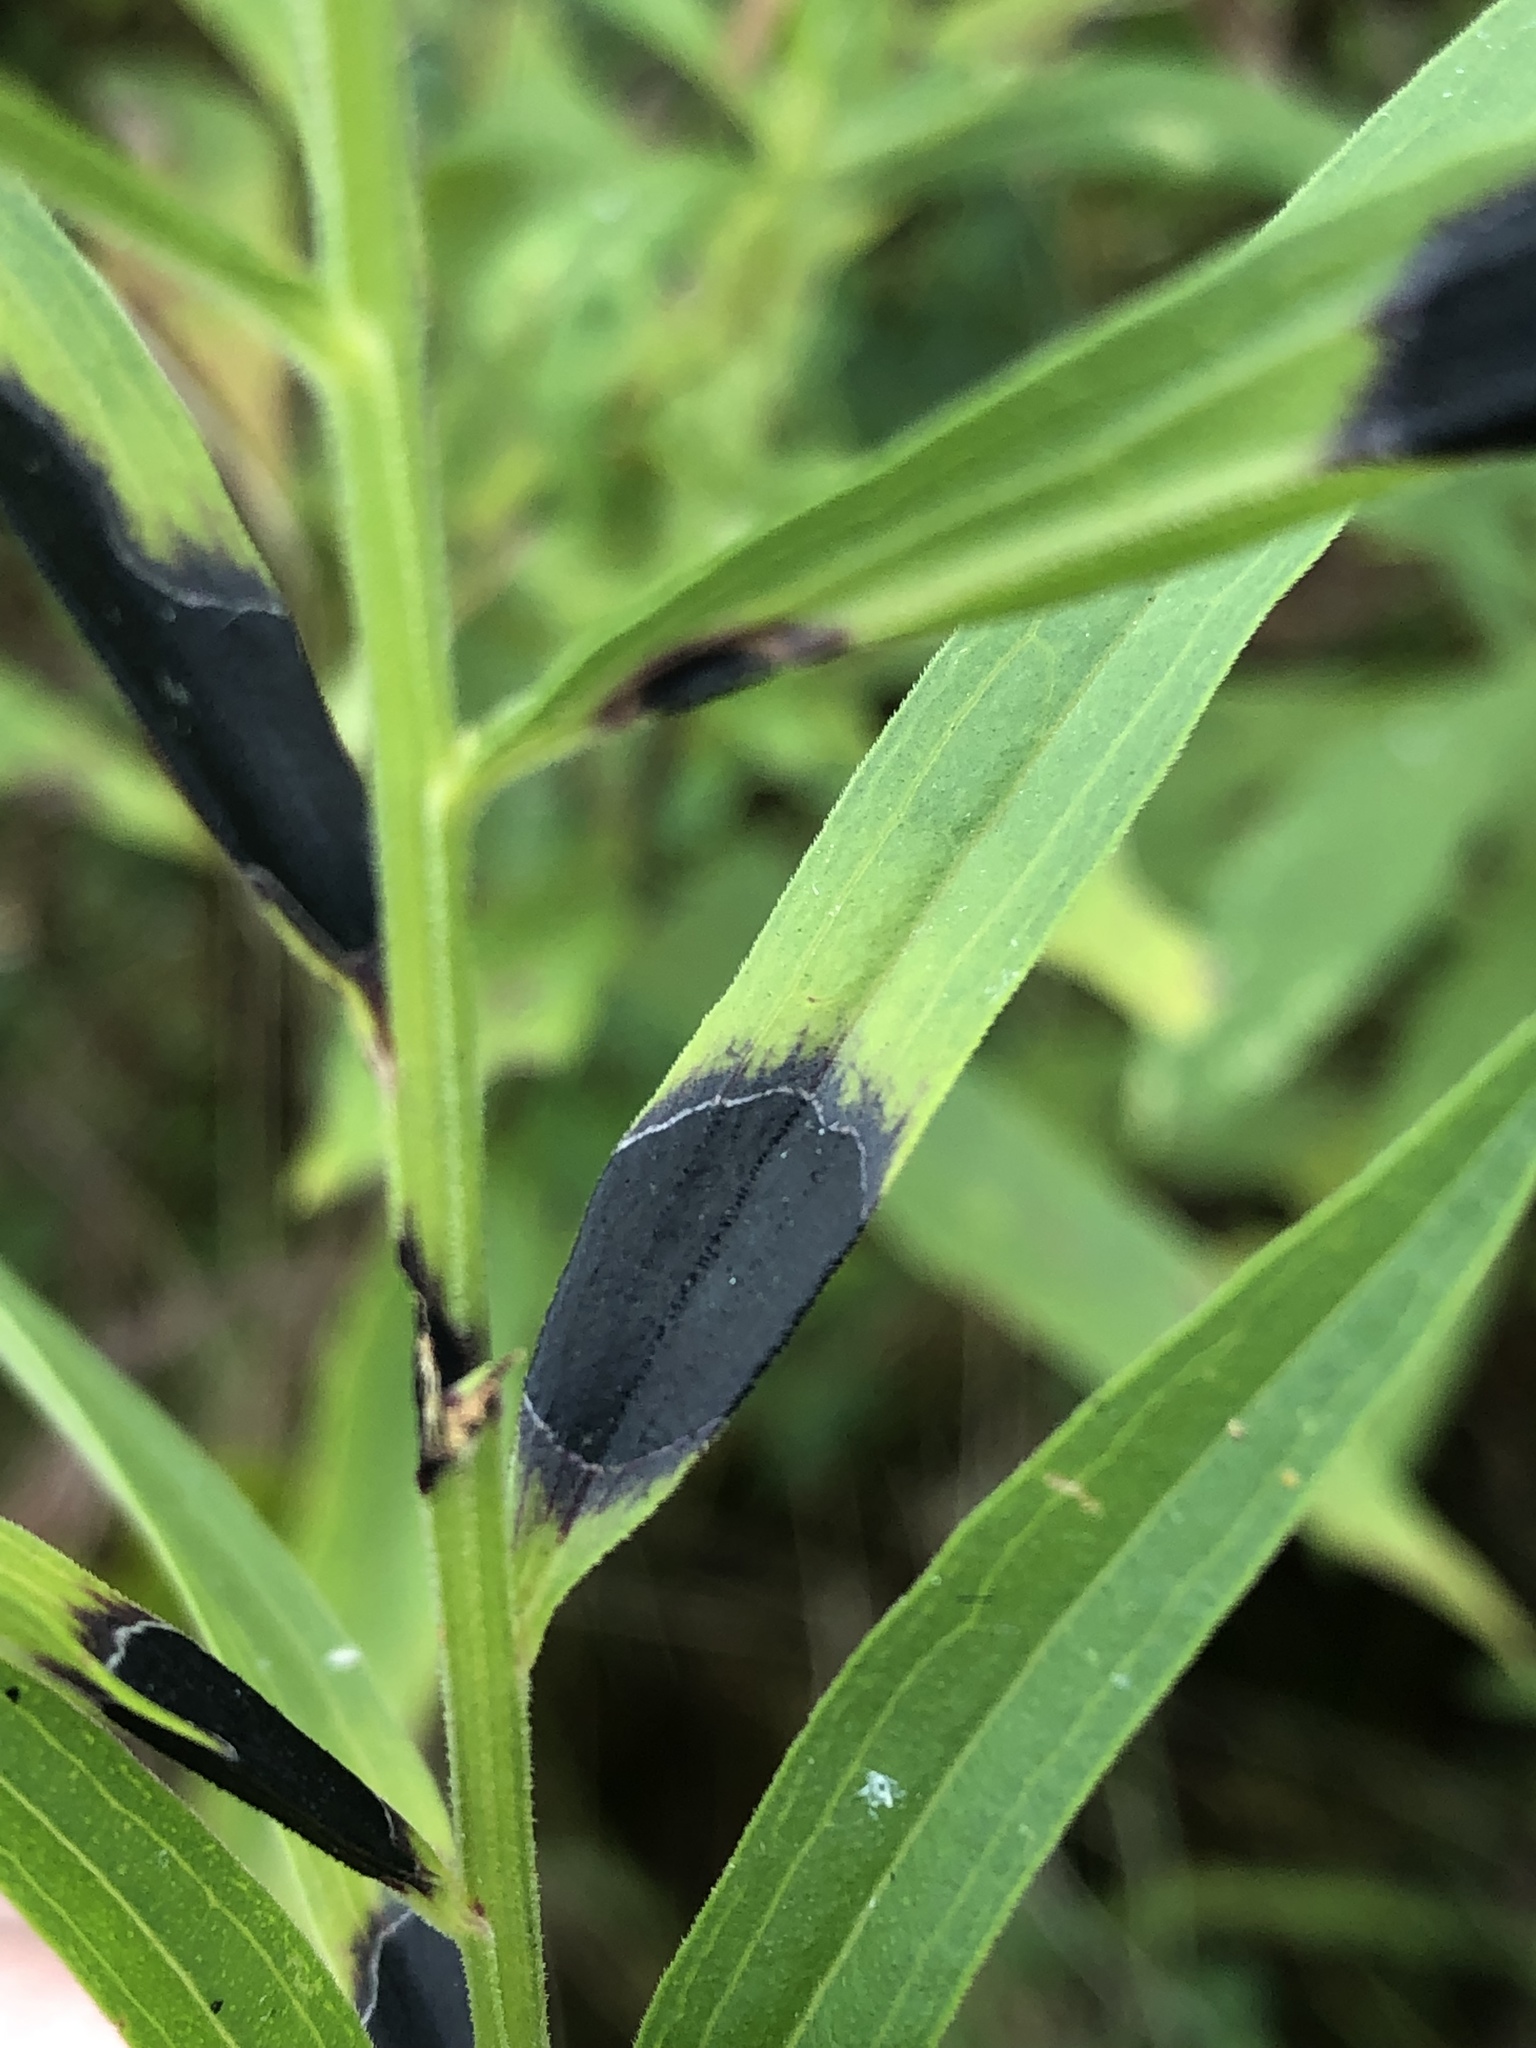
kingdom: Animalia
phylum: Arthropoda
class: Insecta
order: Diptera
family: Cecidomyiidae
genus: Asteromyia
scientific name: Asteromyia euthamiae
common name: Euthamia leaf gall midge
